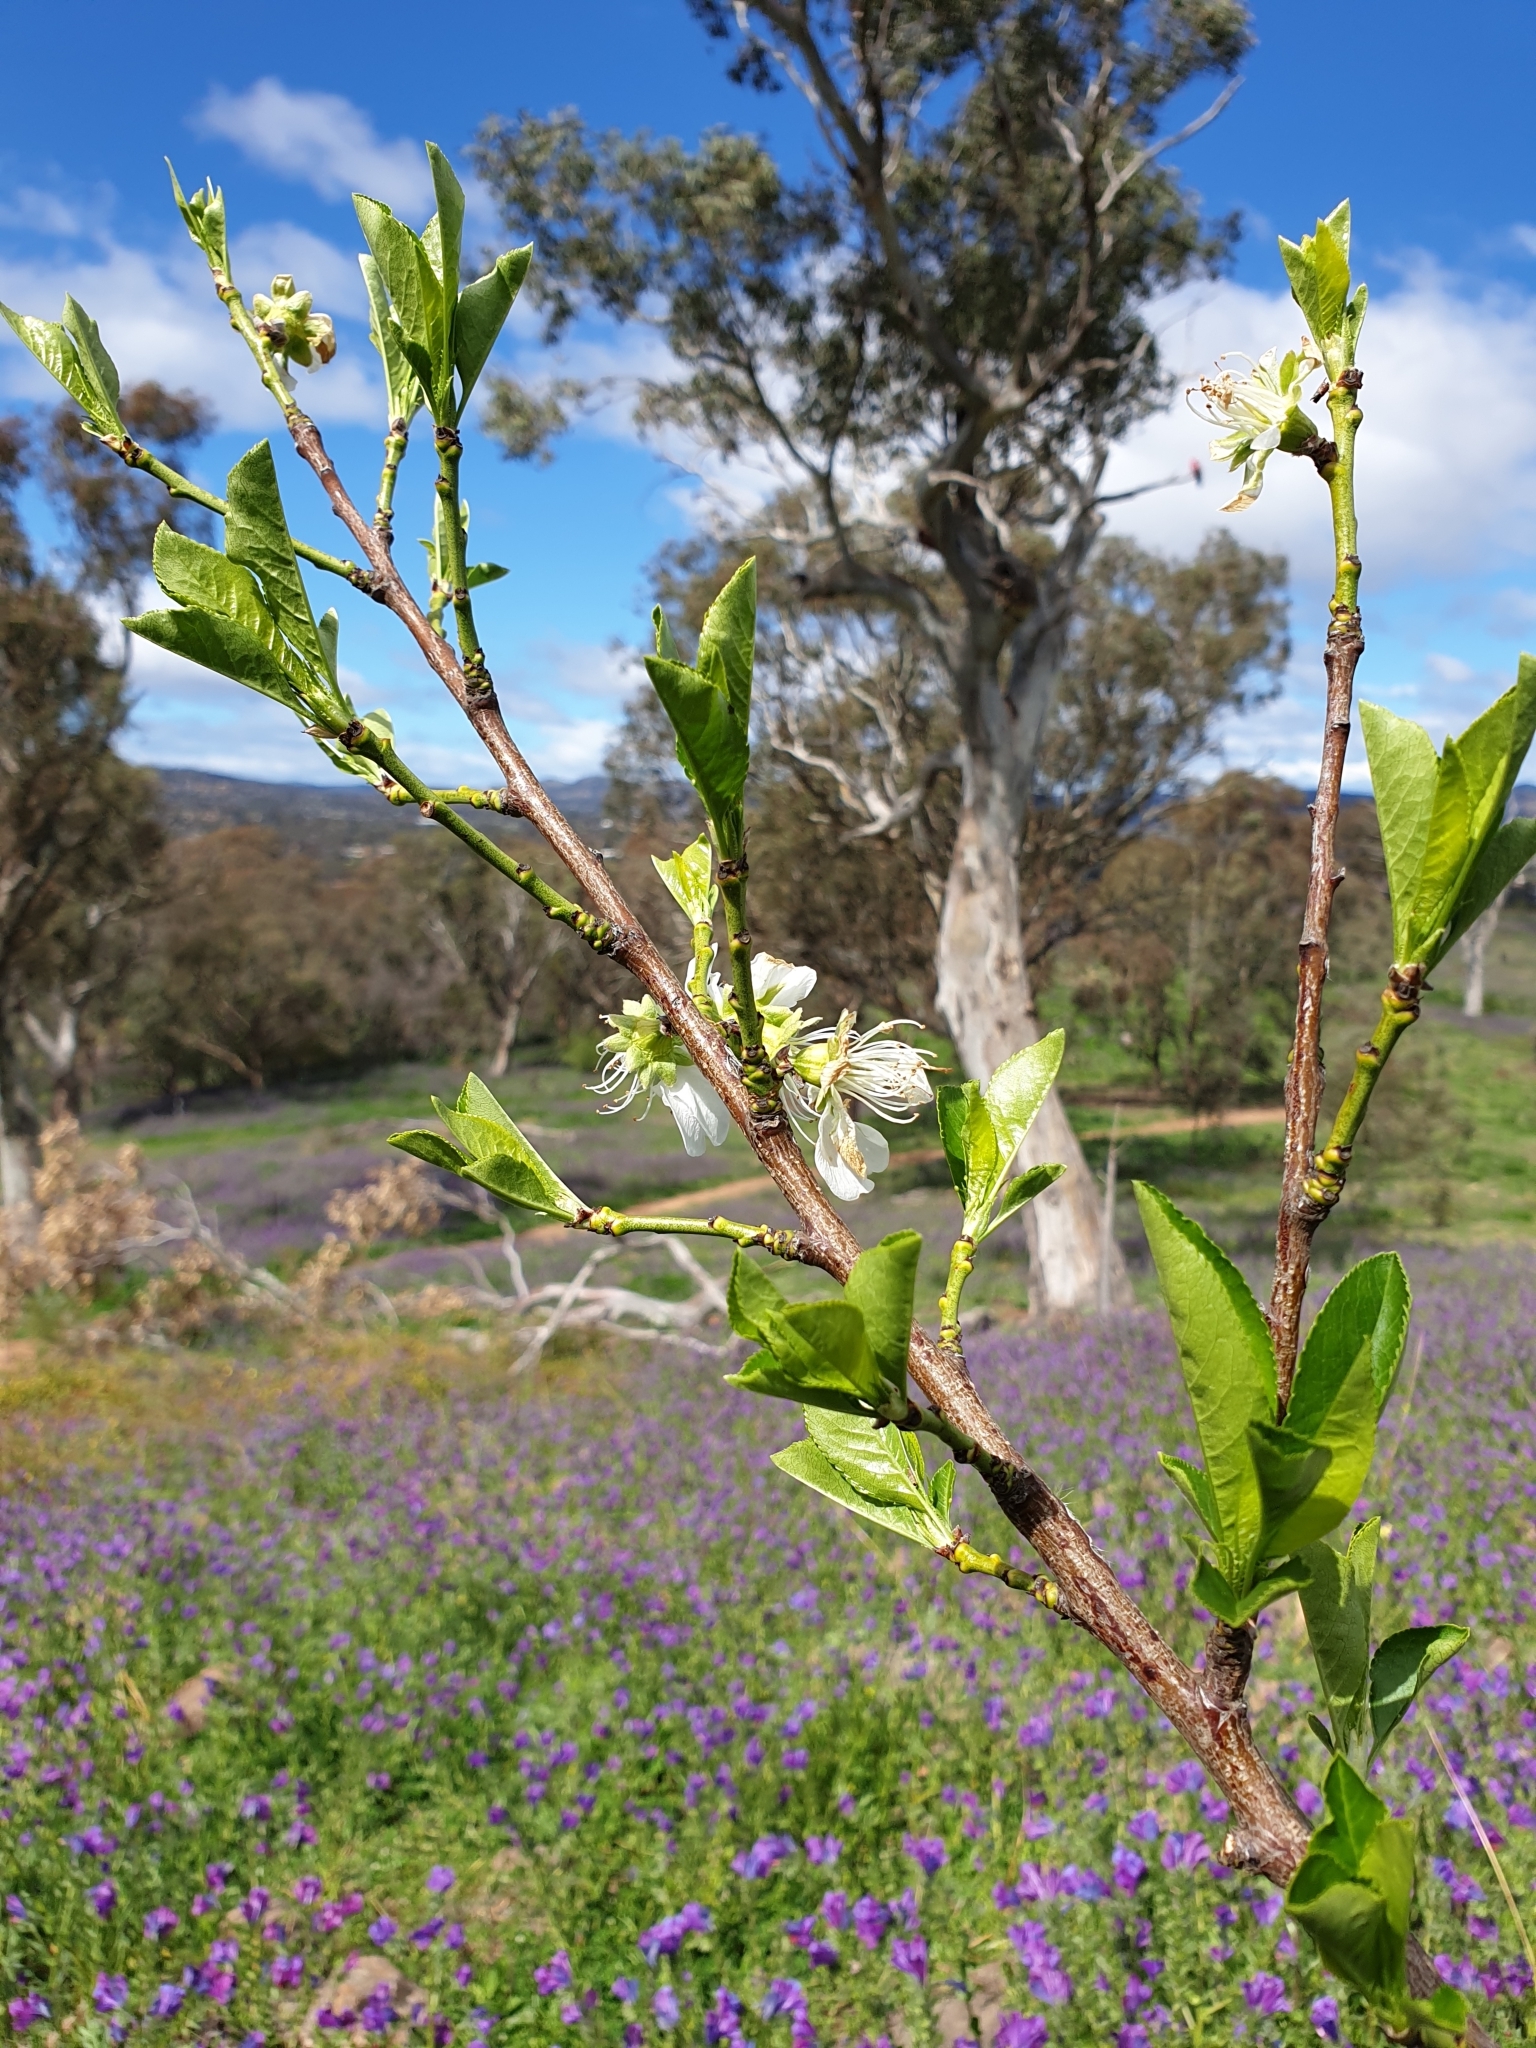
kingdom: Plantae
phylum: Tracheophyta
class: Magnoliopsida
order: Rosales
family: Rosaceae
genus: Malus
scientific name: Malus domestica
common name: Apple
